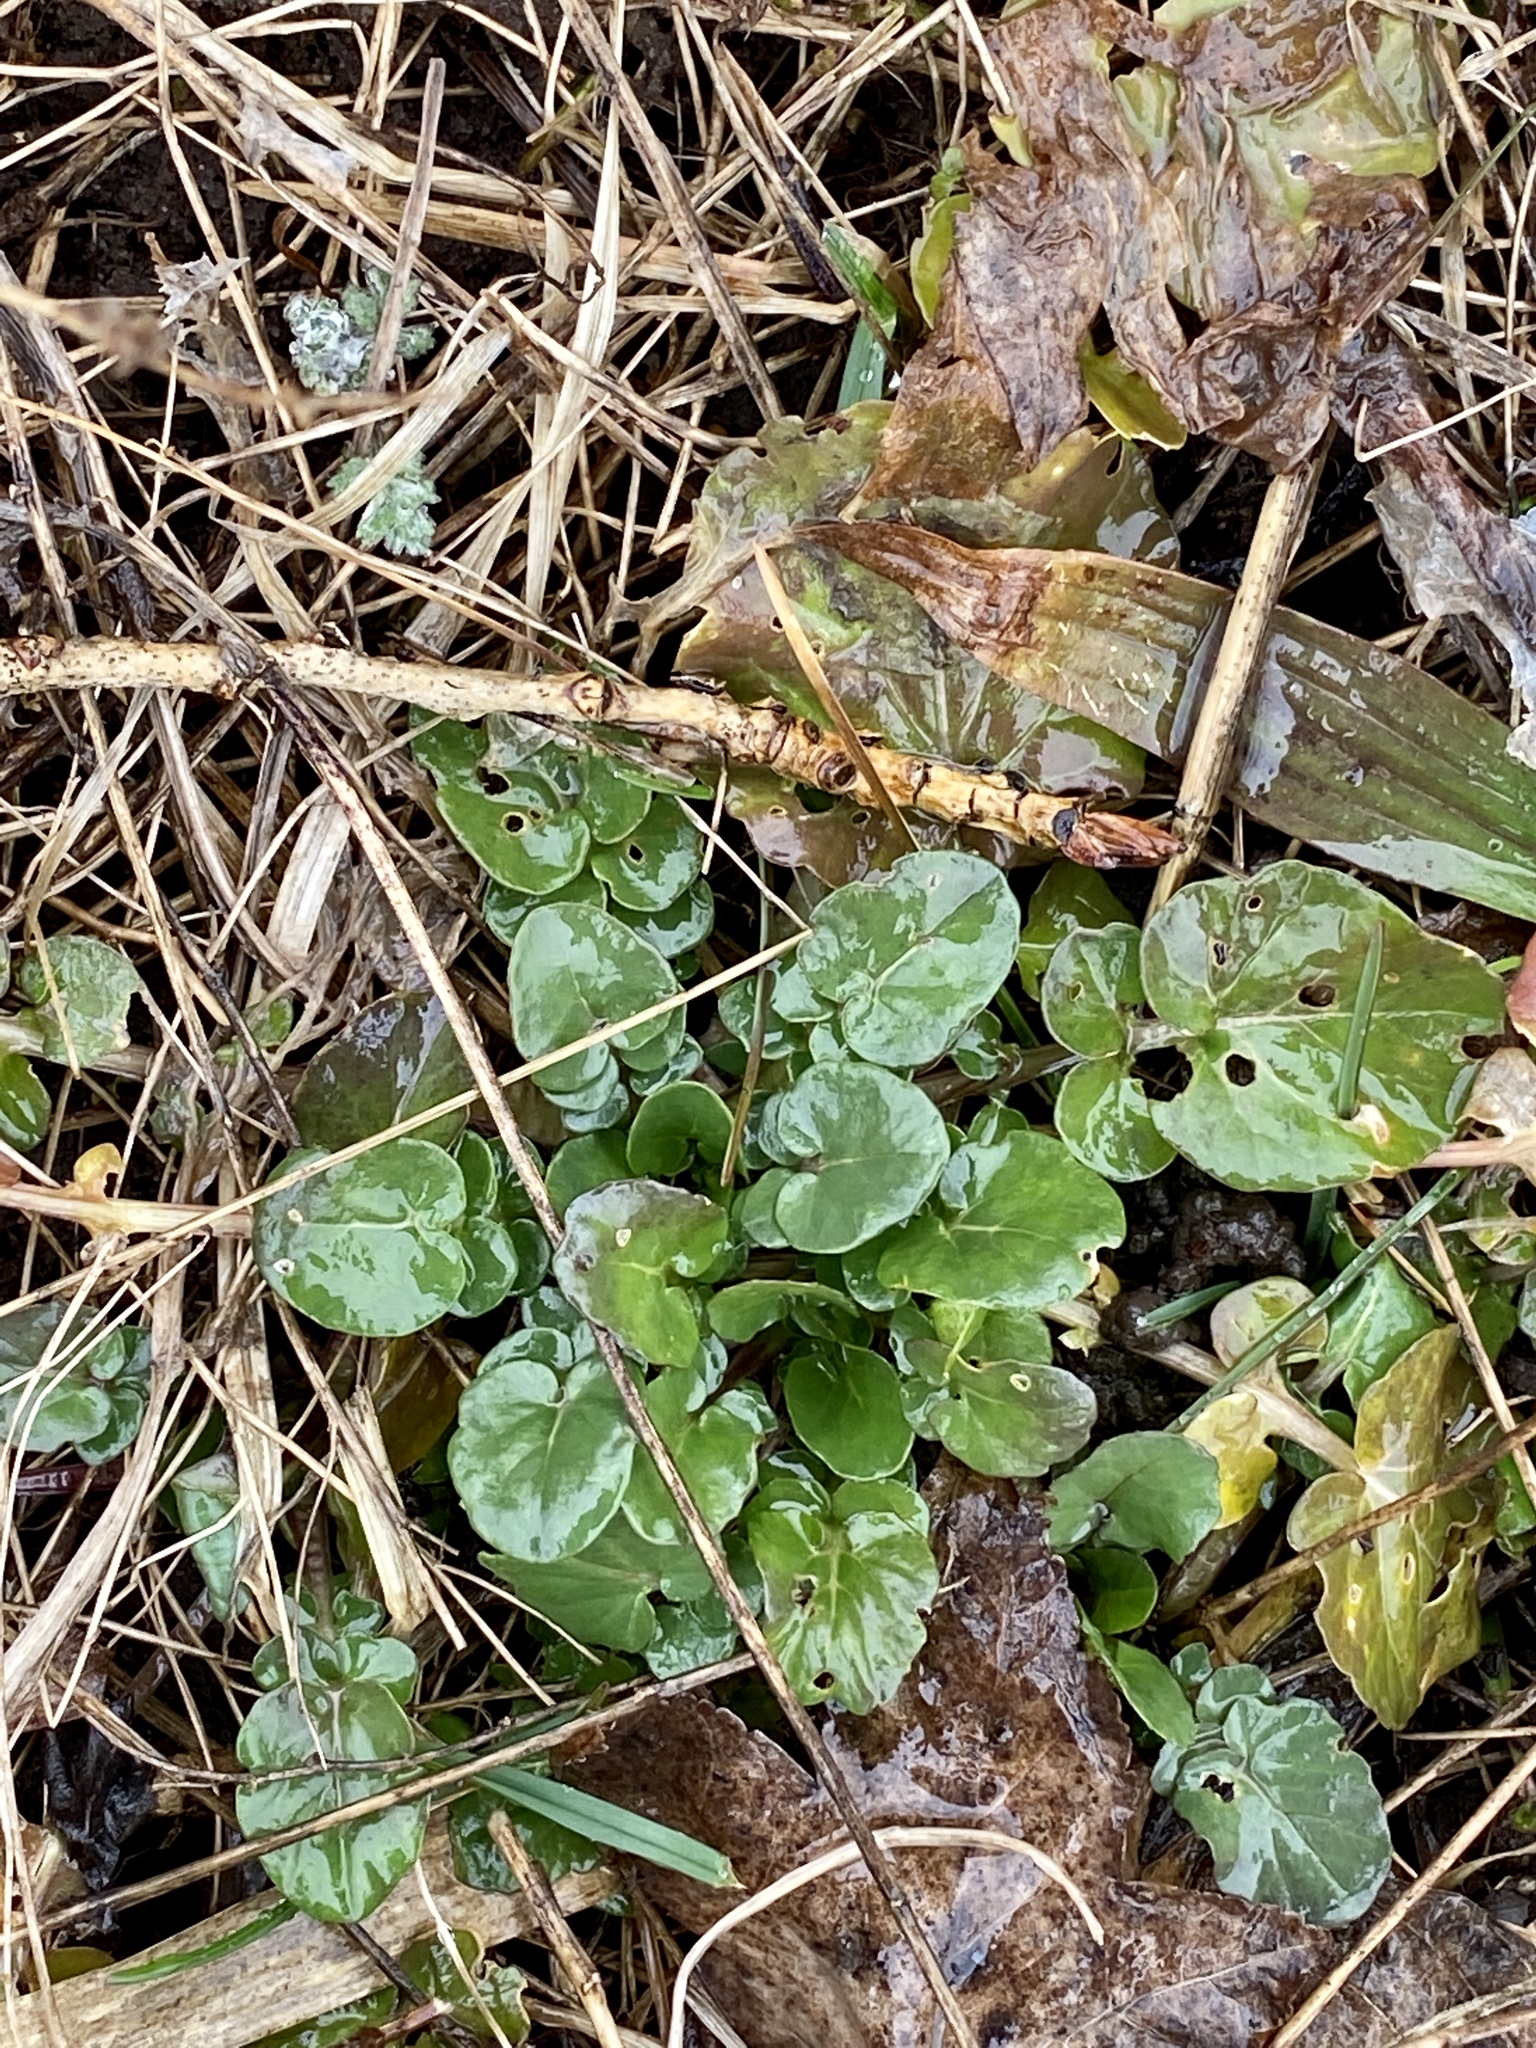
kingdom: Plantae
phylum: Tracheophyta
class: Magnoliopsida
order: Brassicales
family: Brassicaceae
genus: Barbarea
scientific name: Barbarea vulgaris
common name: Cressy-greens
